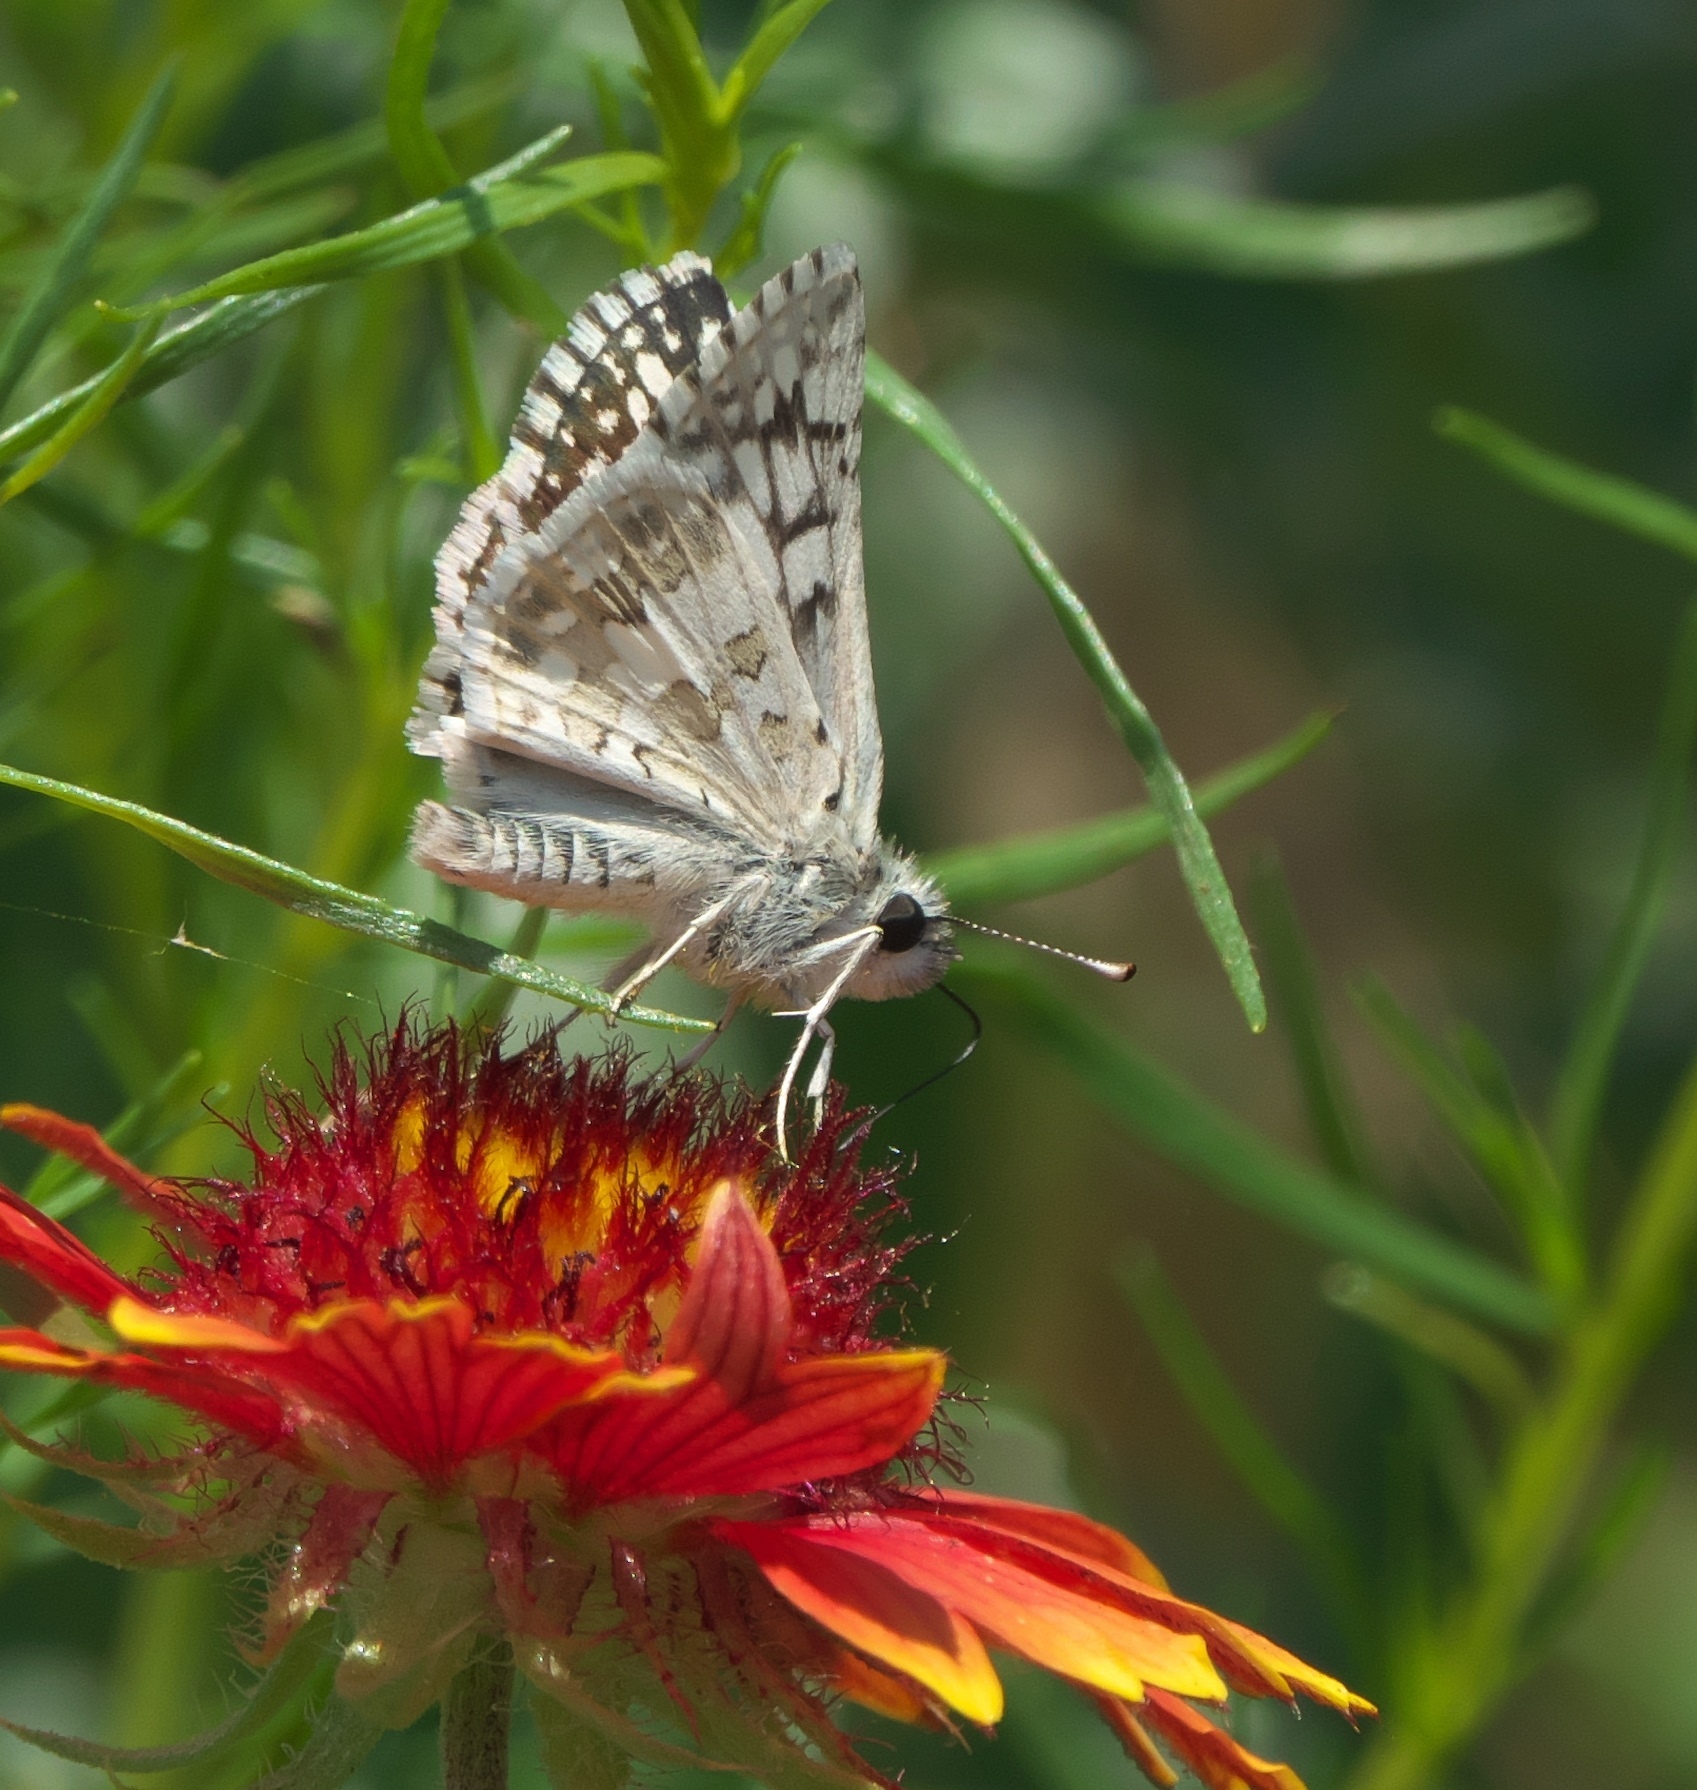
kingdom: Animalia
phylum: Arthropoda
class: Insecta
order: Lepidoptera
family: Hesperiidae
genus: Burnsius
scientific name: Burnsius communis
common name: Common checkered-skipper
